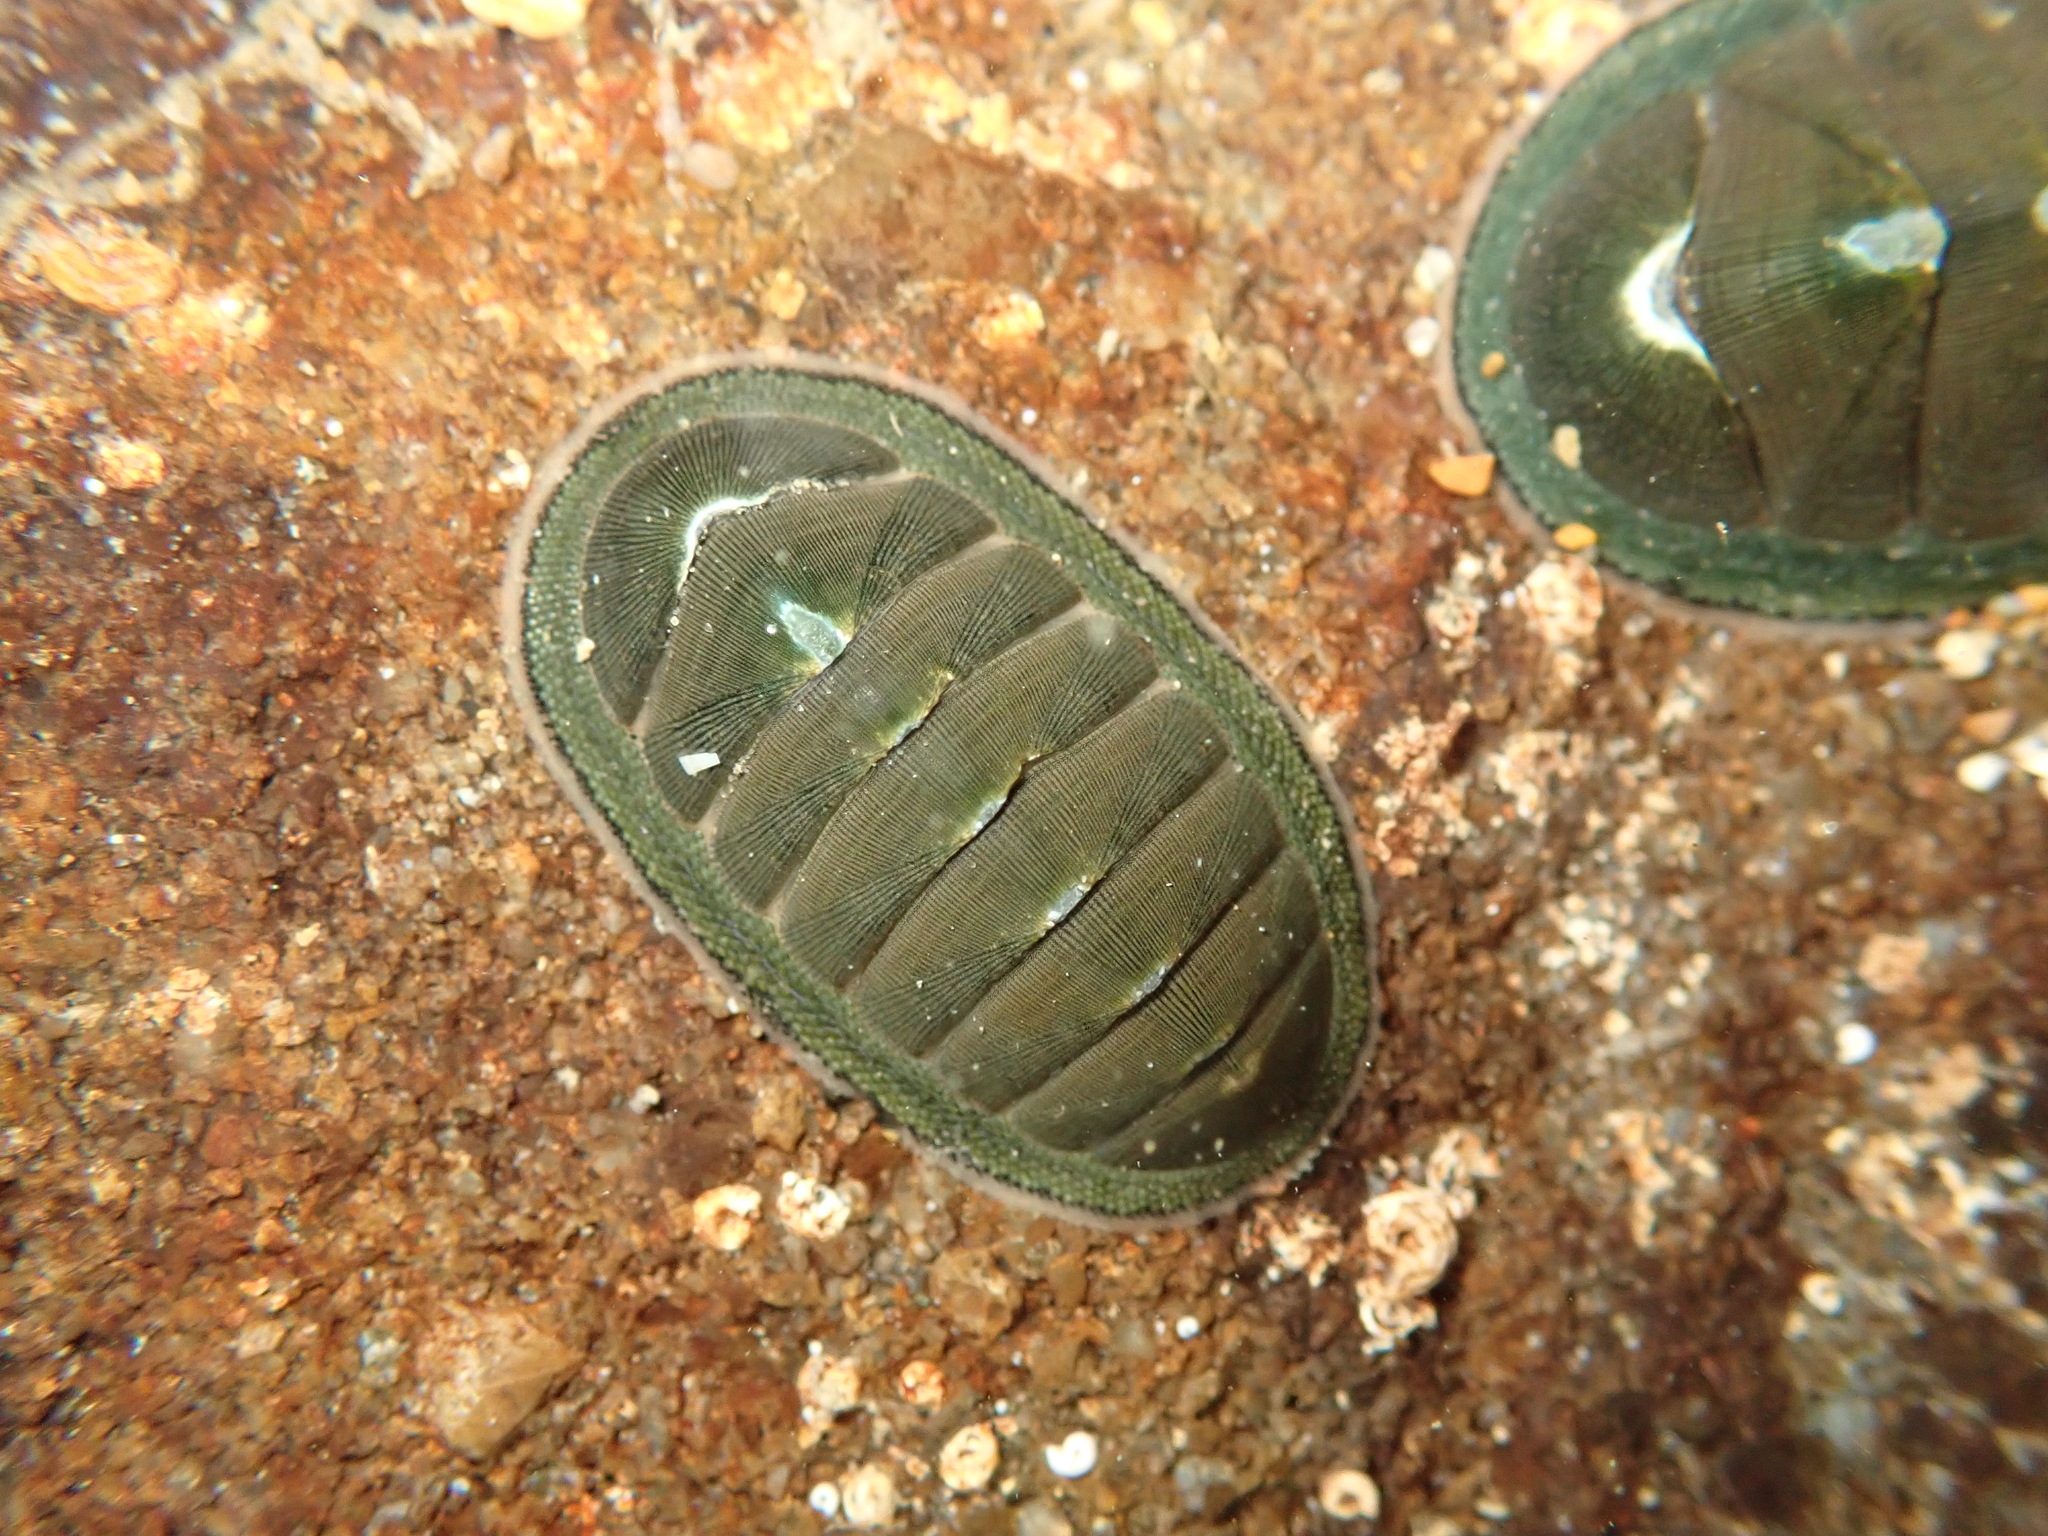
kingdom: Animalia
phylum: Mollusca
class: Polyplacophora
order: Chitonida
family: Chitonidae
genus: Chiton
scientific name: Chiton glaucus
